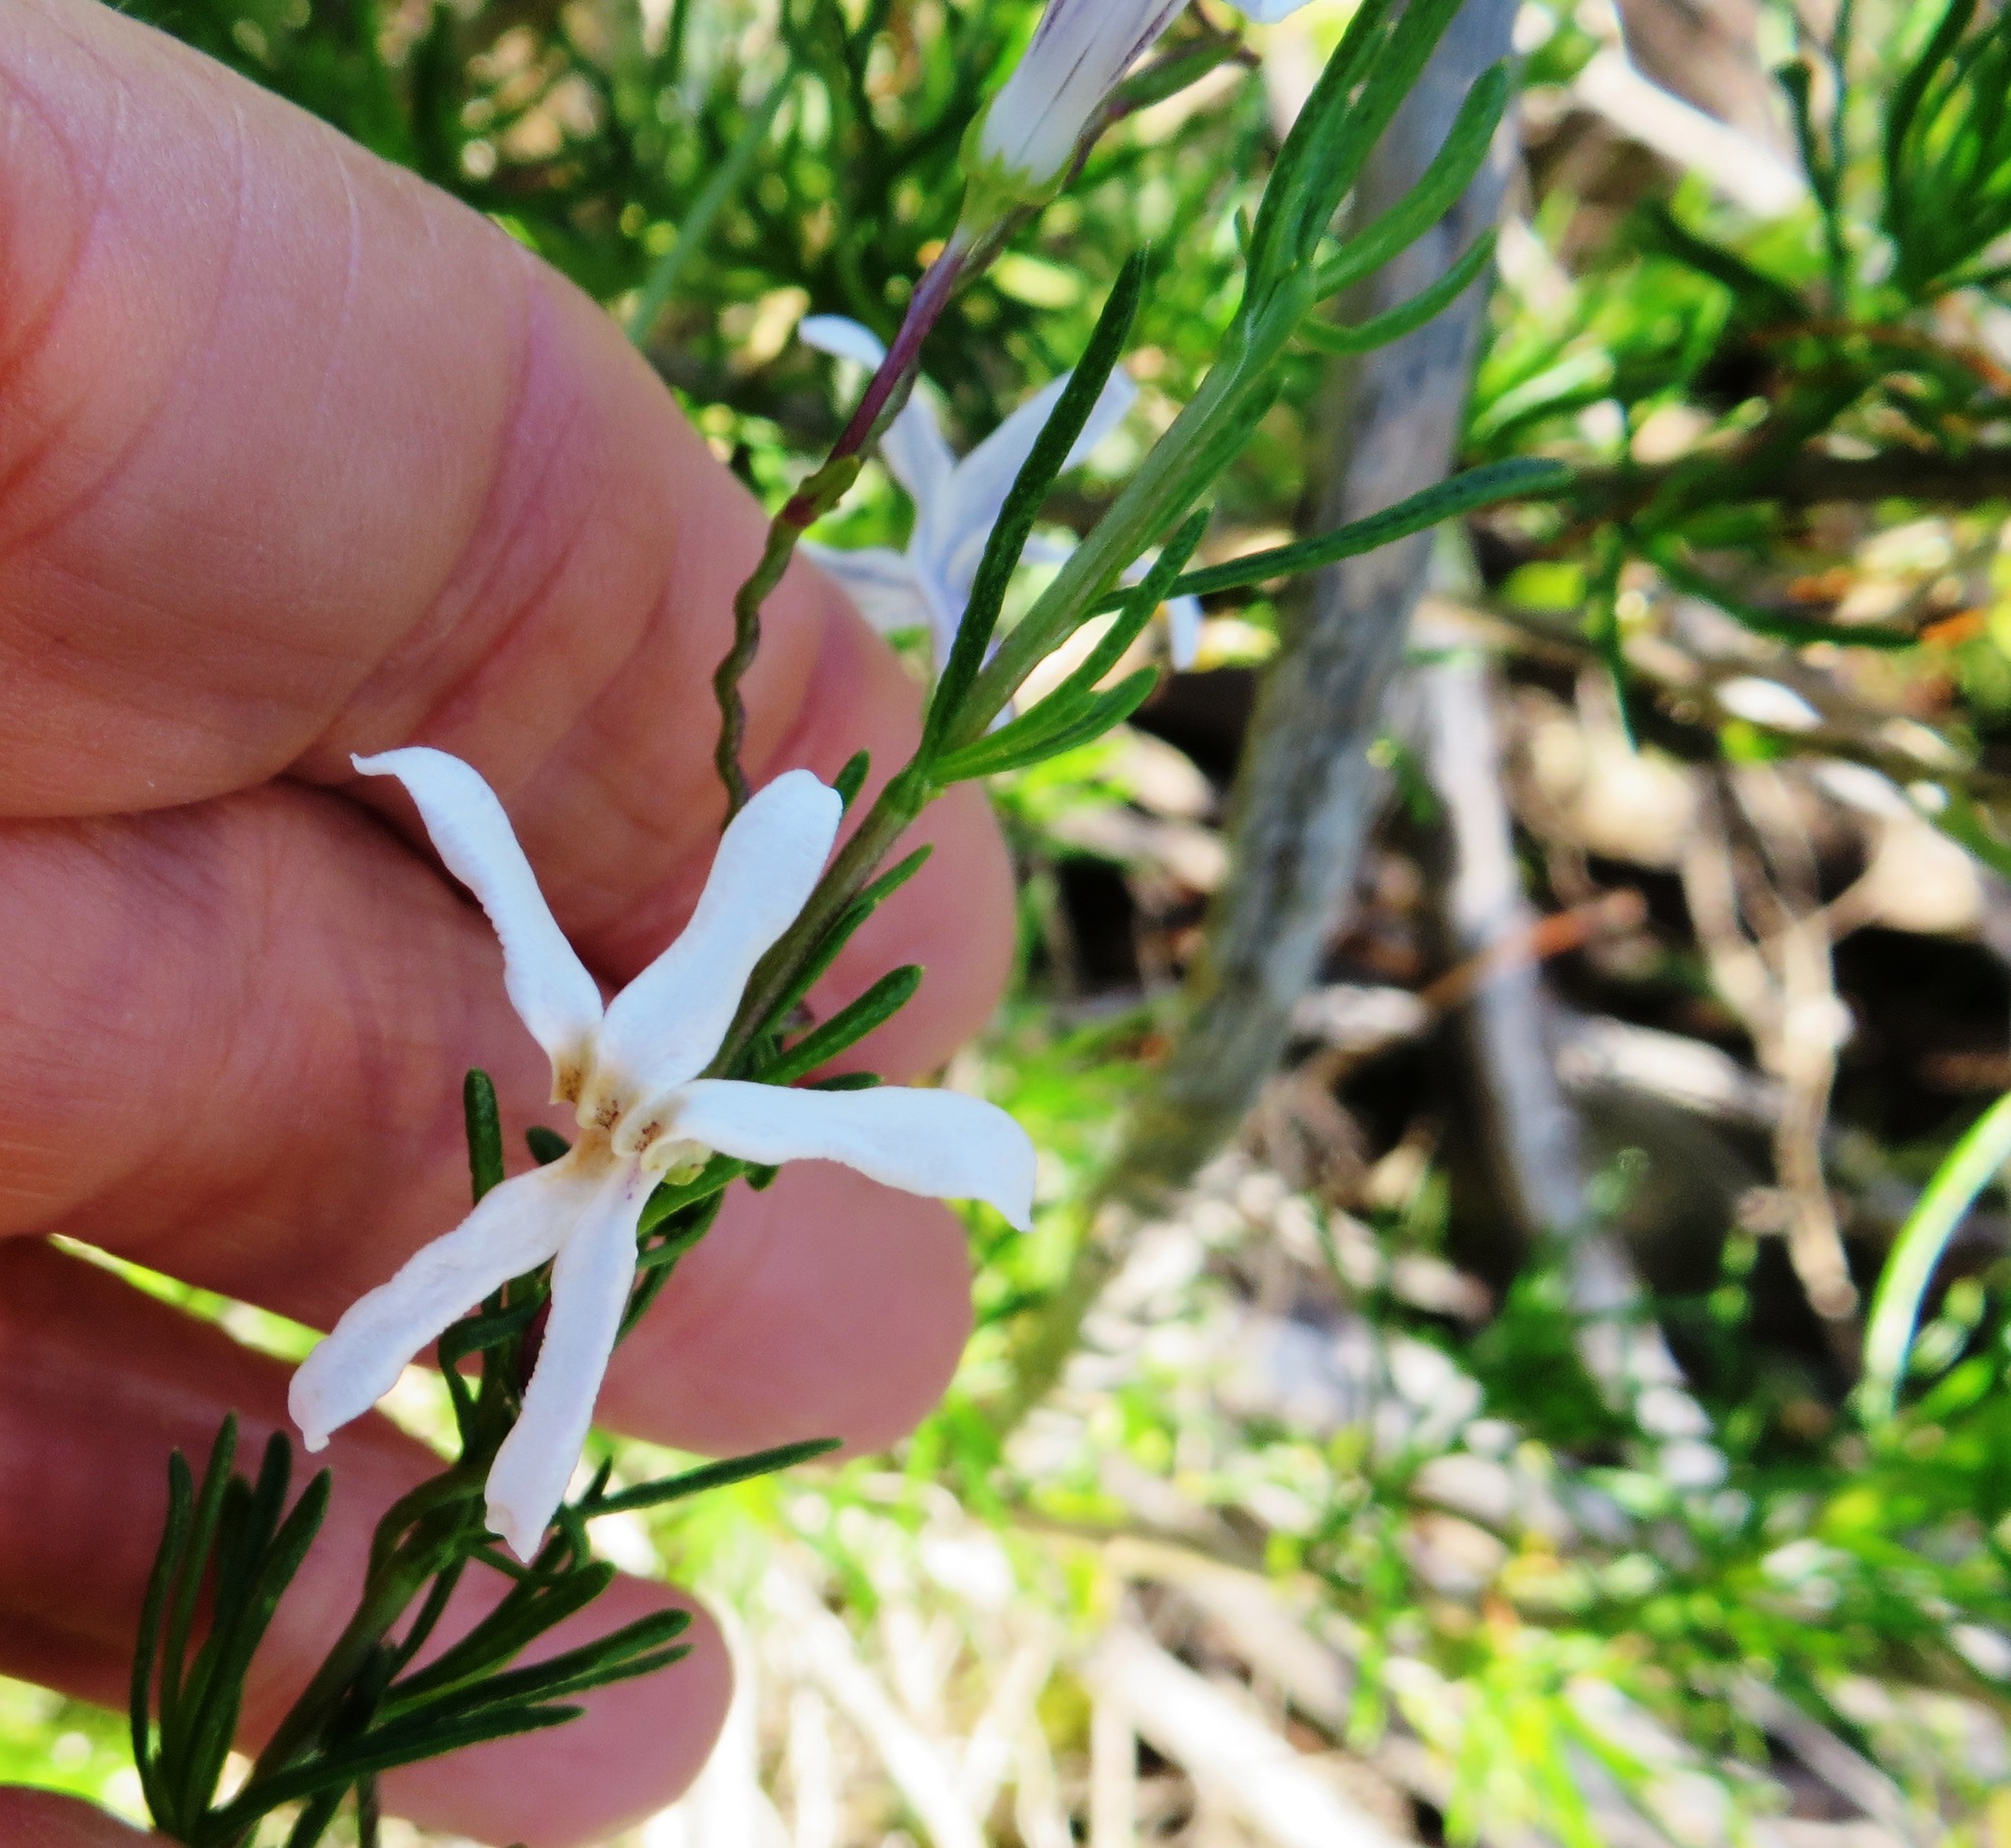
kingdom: Plantae
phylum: Tracheophyta
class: Magnoliopsida
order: Asterales
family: Campanulaceae
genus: Cyphia
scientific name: Cyphia volubilis
